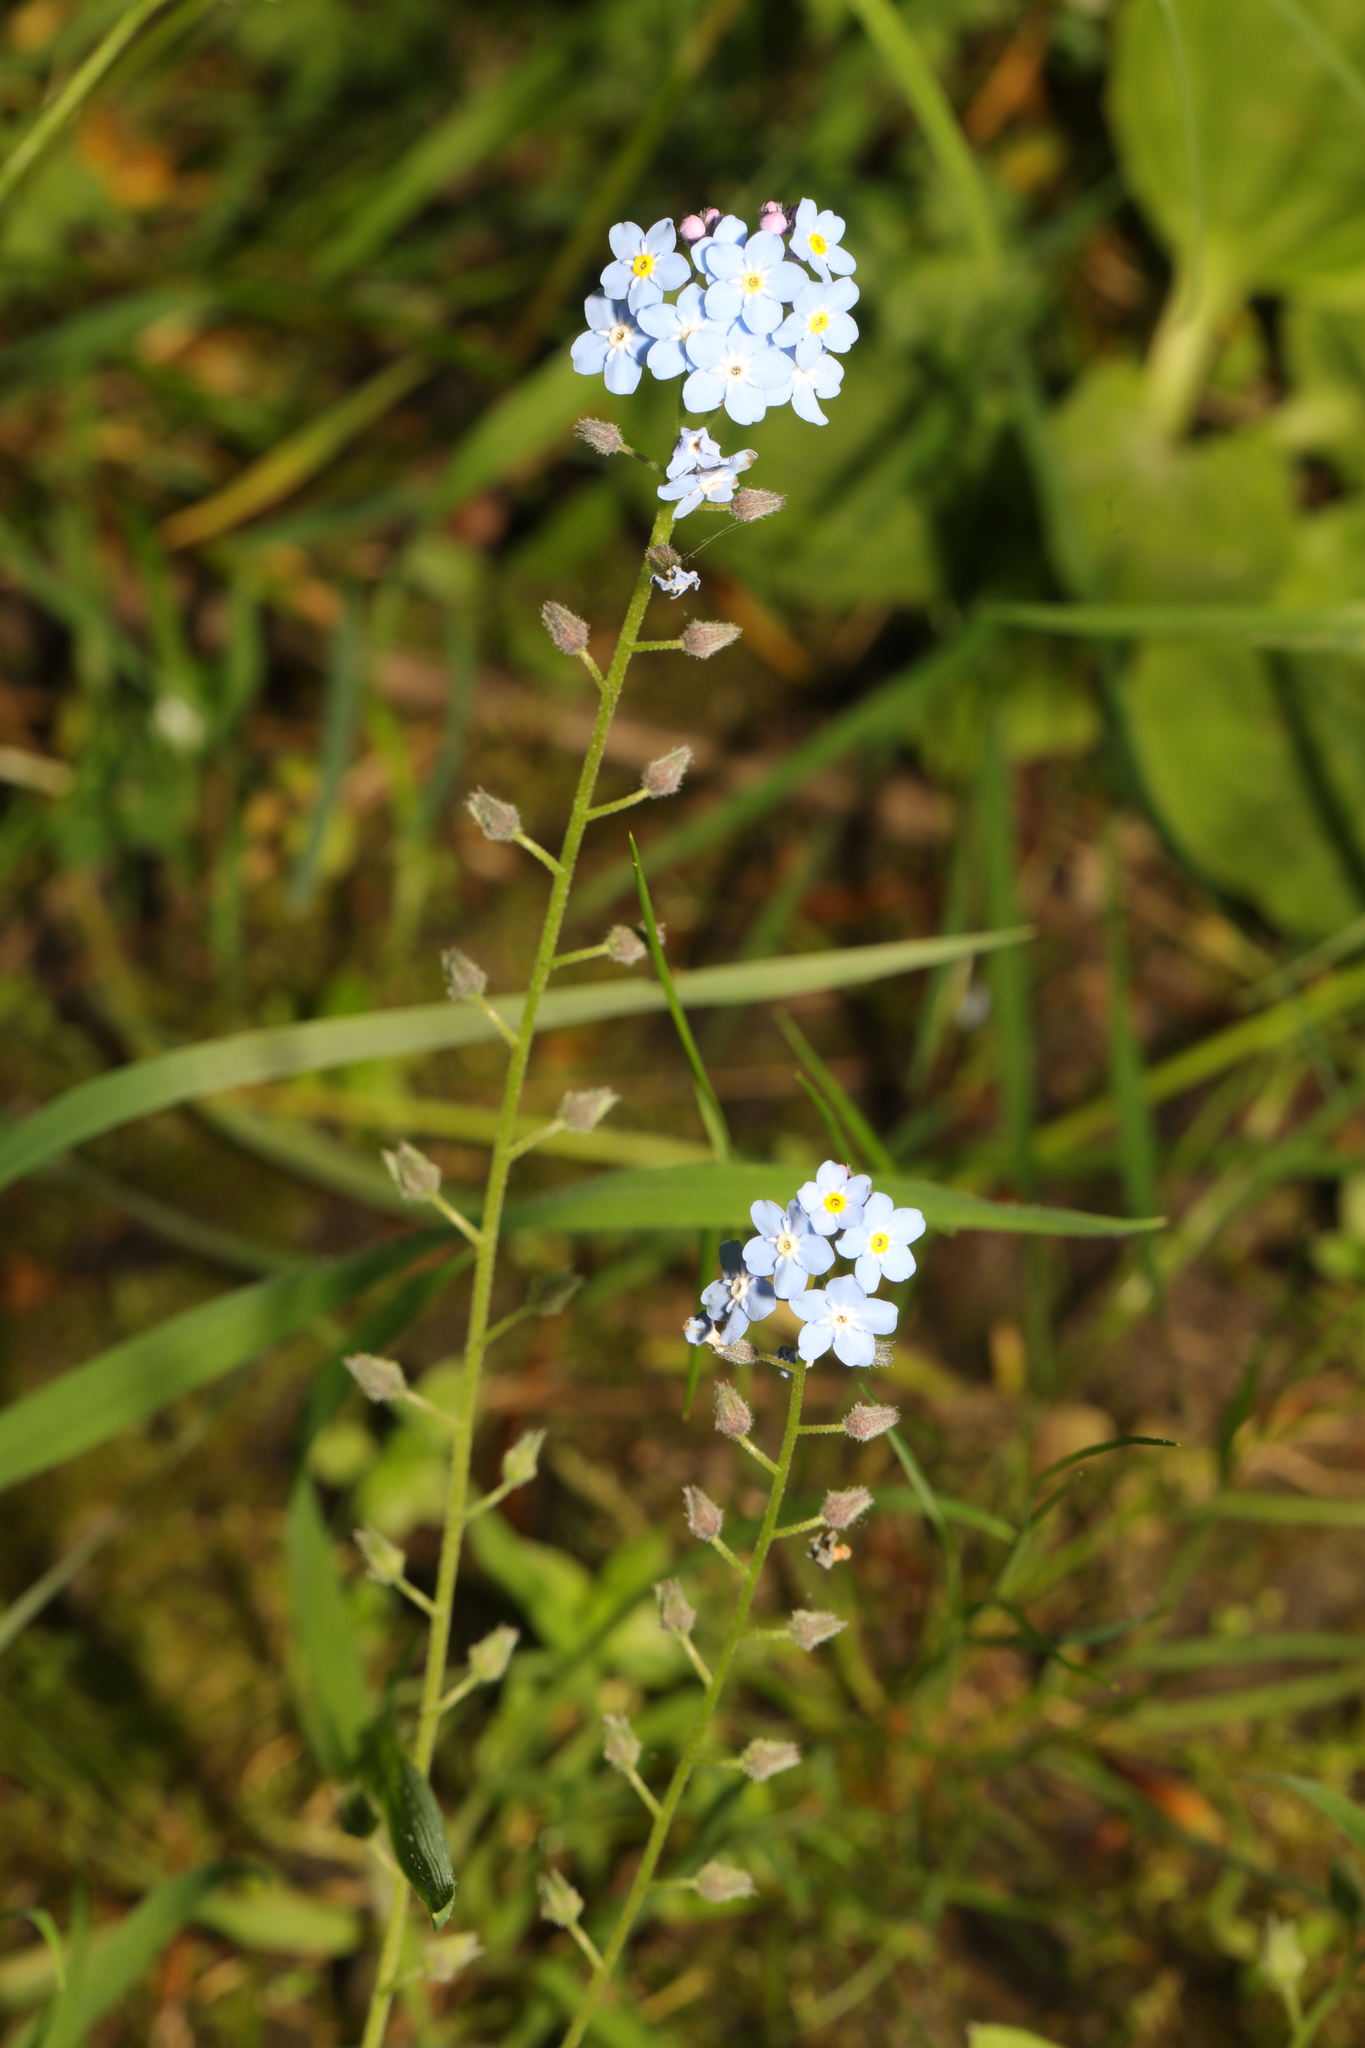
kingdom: Plantae
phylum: Tracheophyta
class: Magnoliopsida
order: Boraginales
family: Boraginaceae
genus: Myosotis
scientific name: Myosotis sylvatica
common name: Wood forget-me-not
